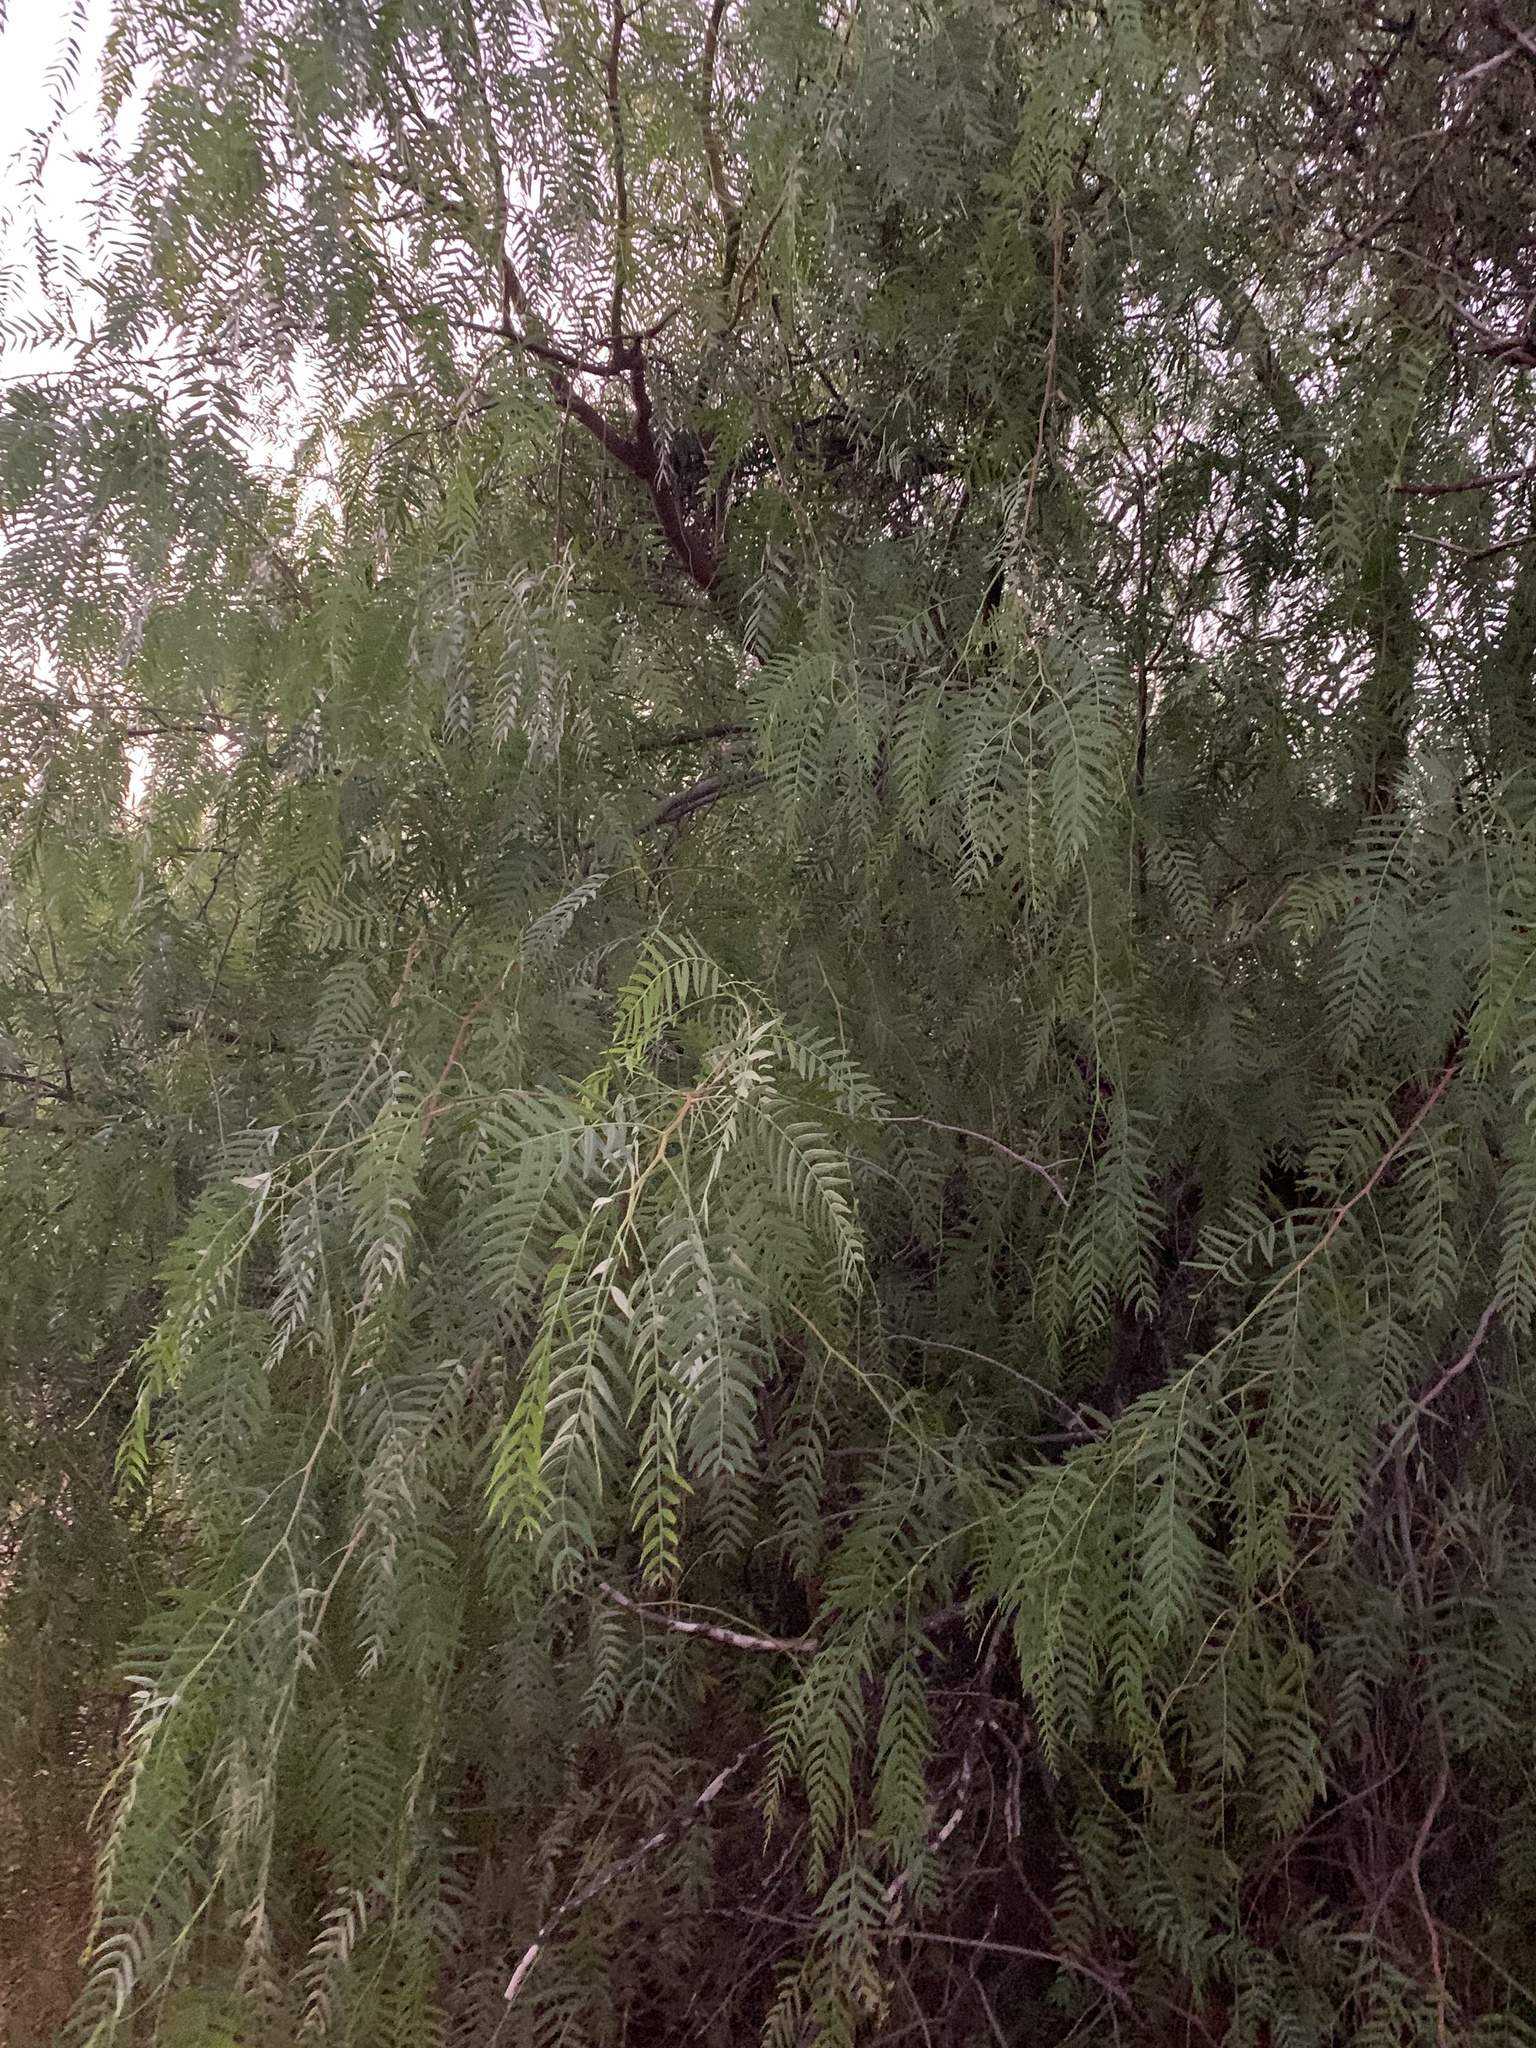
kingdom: Plantae
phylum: Tracheophyta
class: Magnoliopsida
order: Sapindales
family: Anacardiaceae
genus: Schinus
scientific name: Schinus molle
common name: Peruvian peppertree
